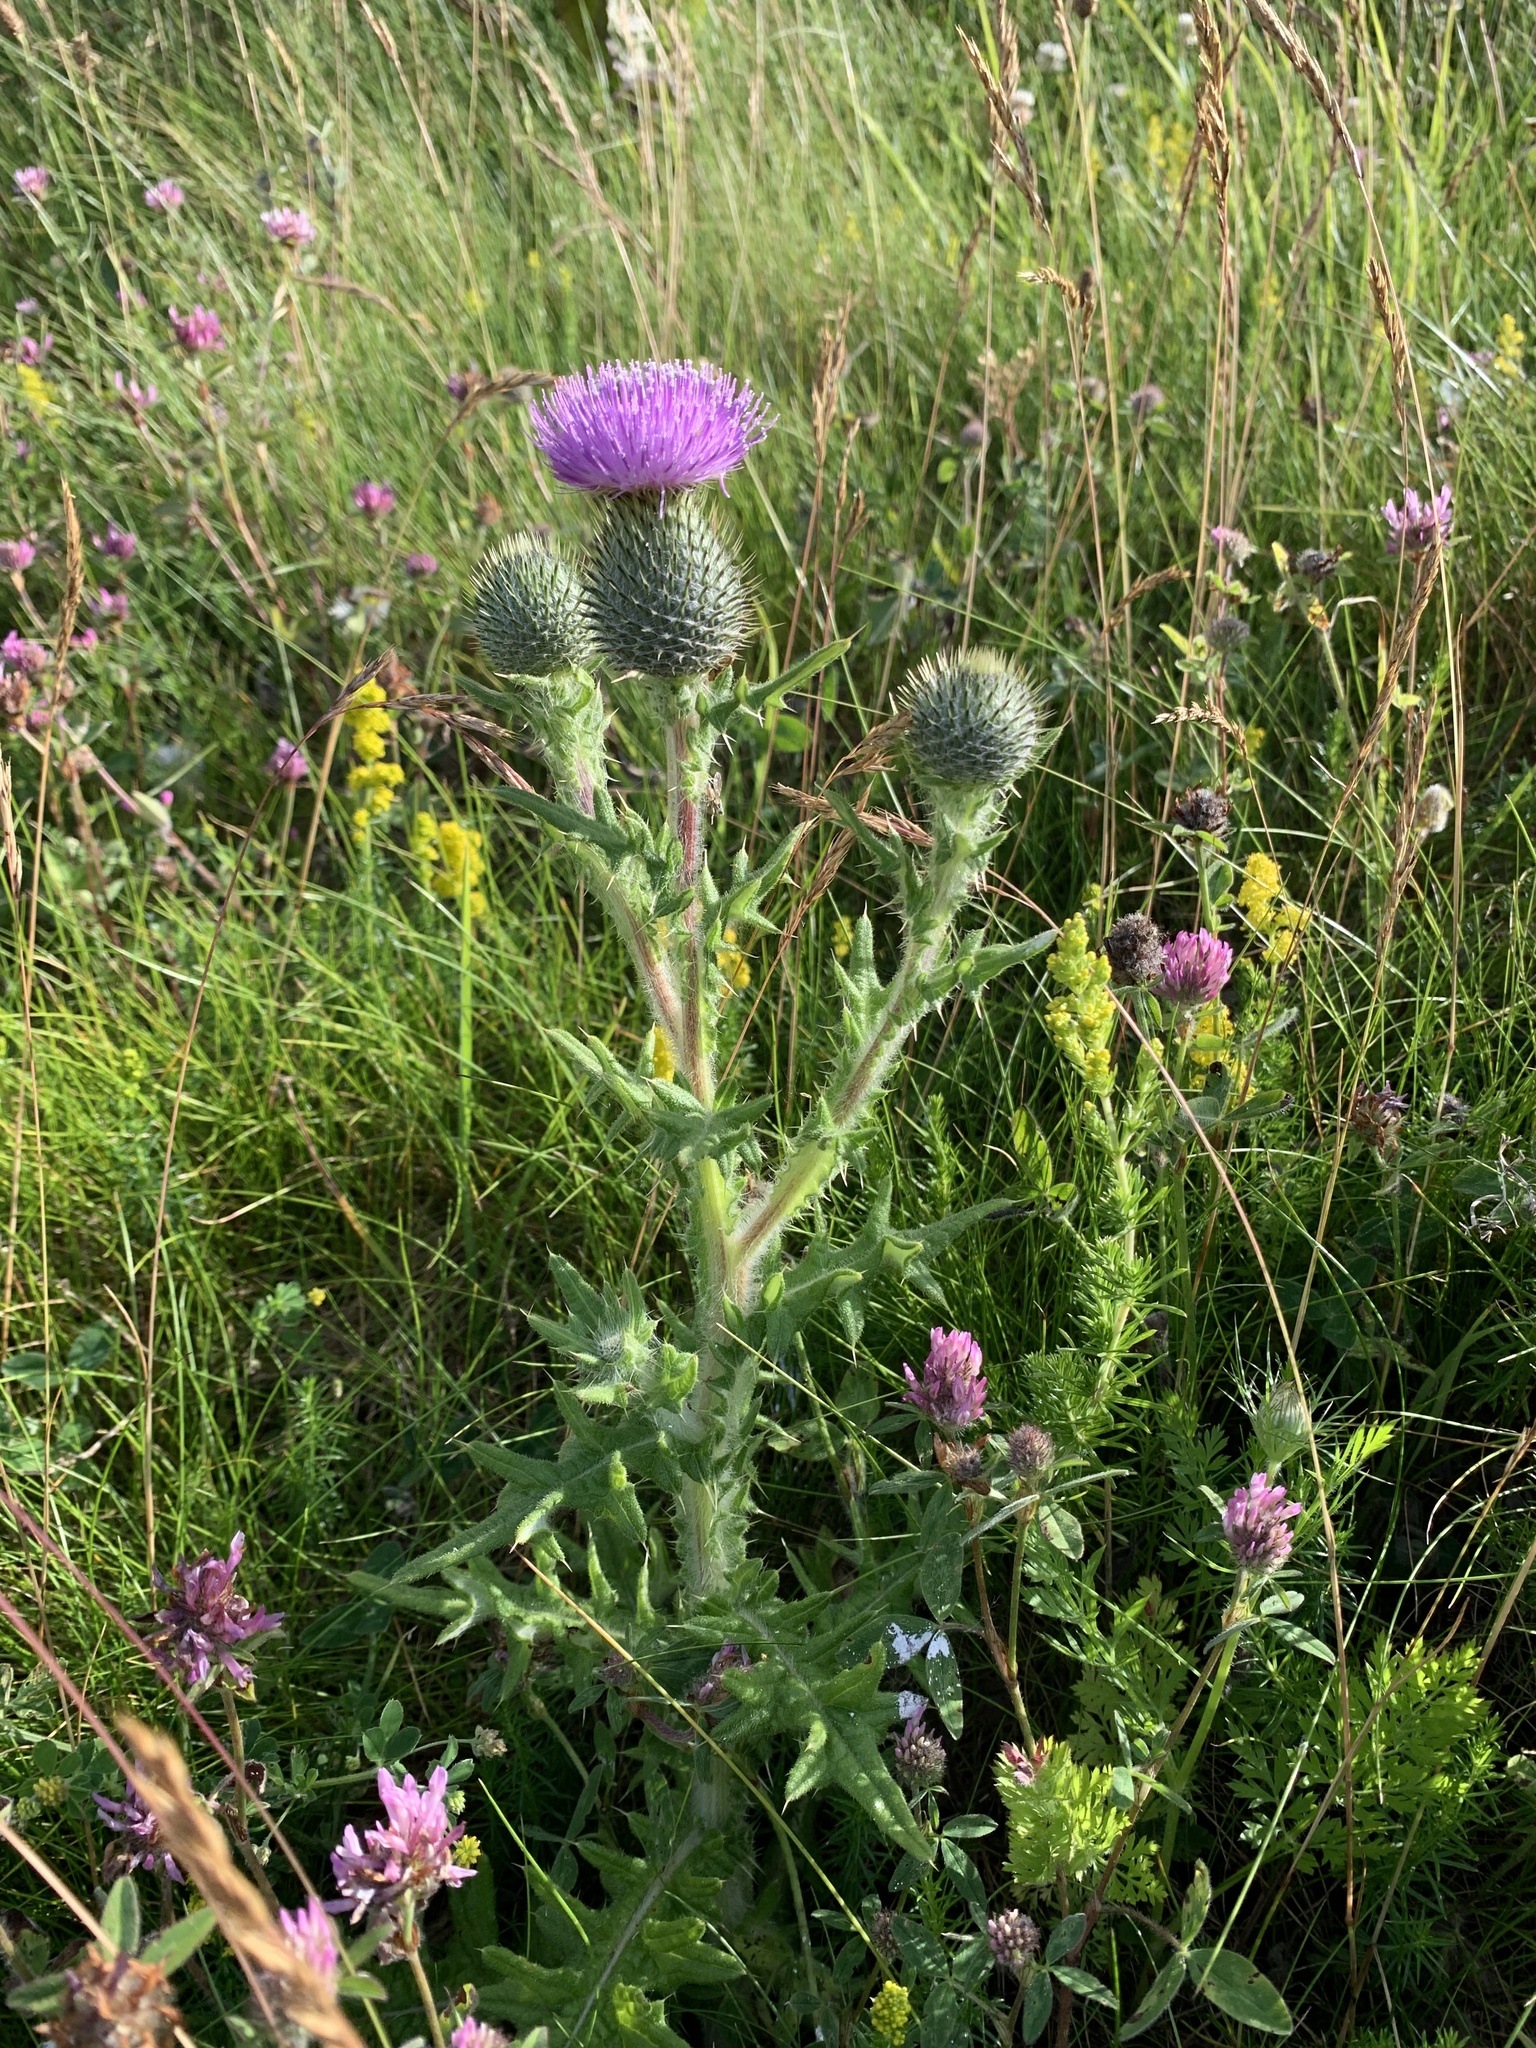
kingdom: Plantae
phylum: Tracheophyta
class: Magnoliopsida
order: Asterales
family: Asteraceae
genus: Cirsium
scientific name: Cirsium vulgare
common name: Bull thistle
